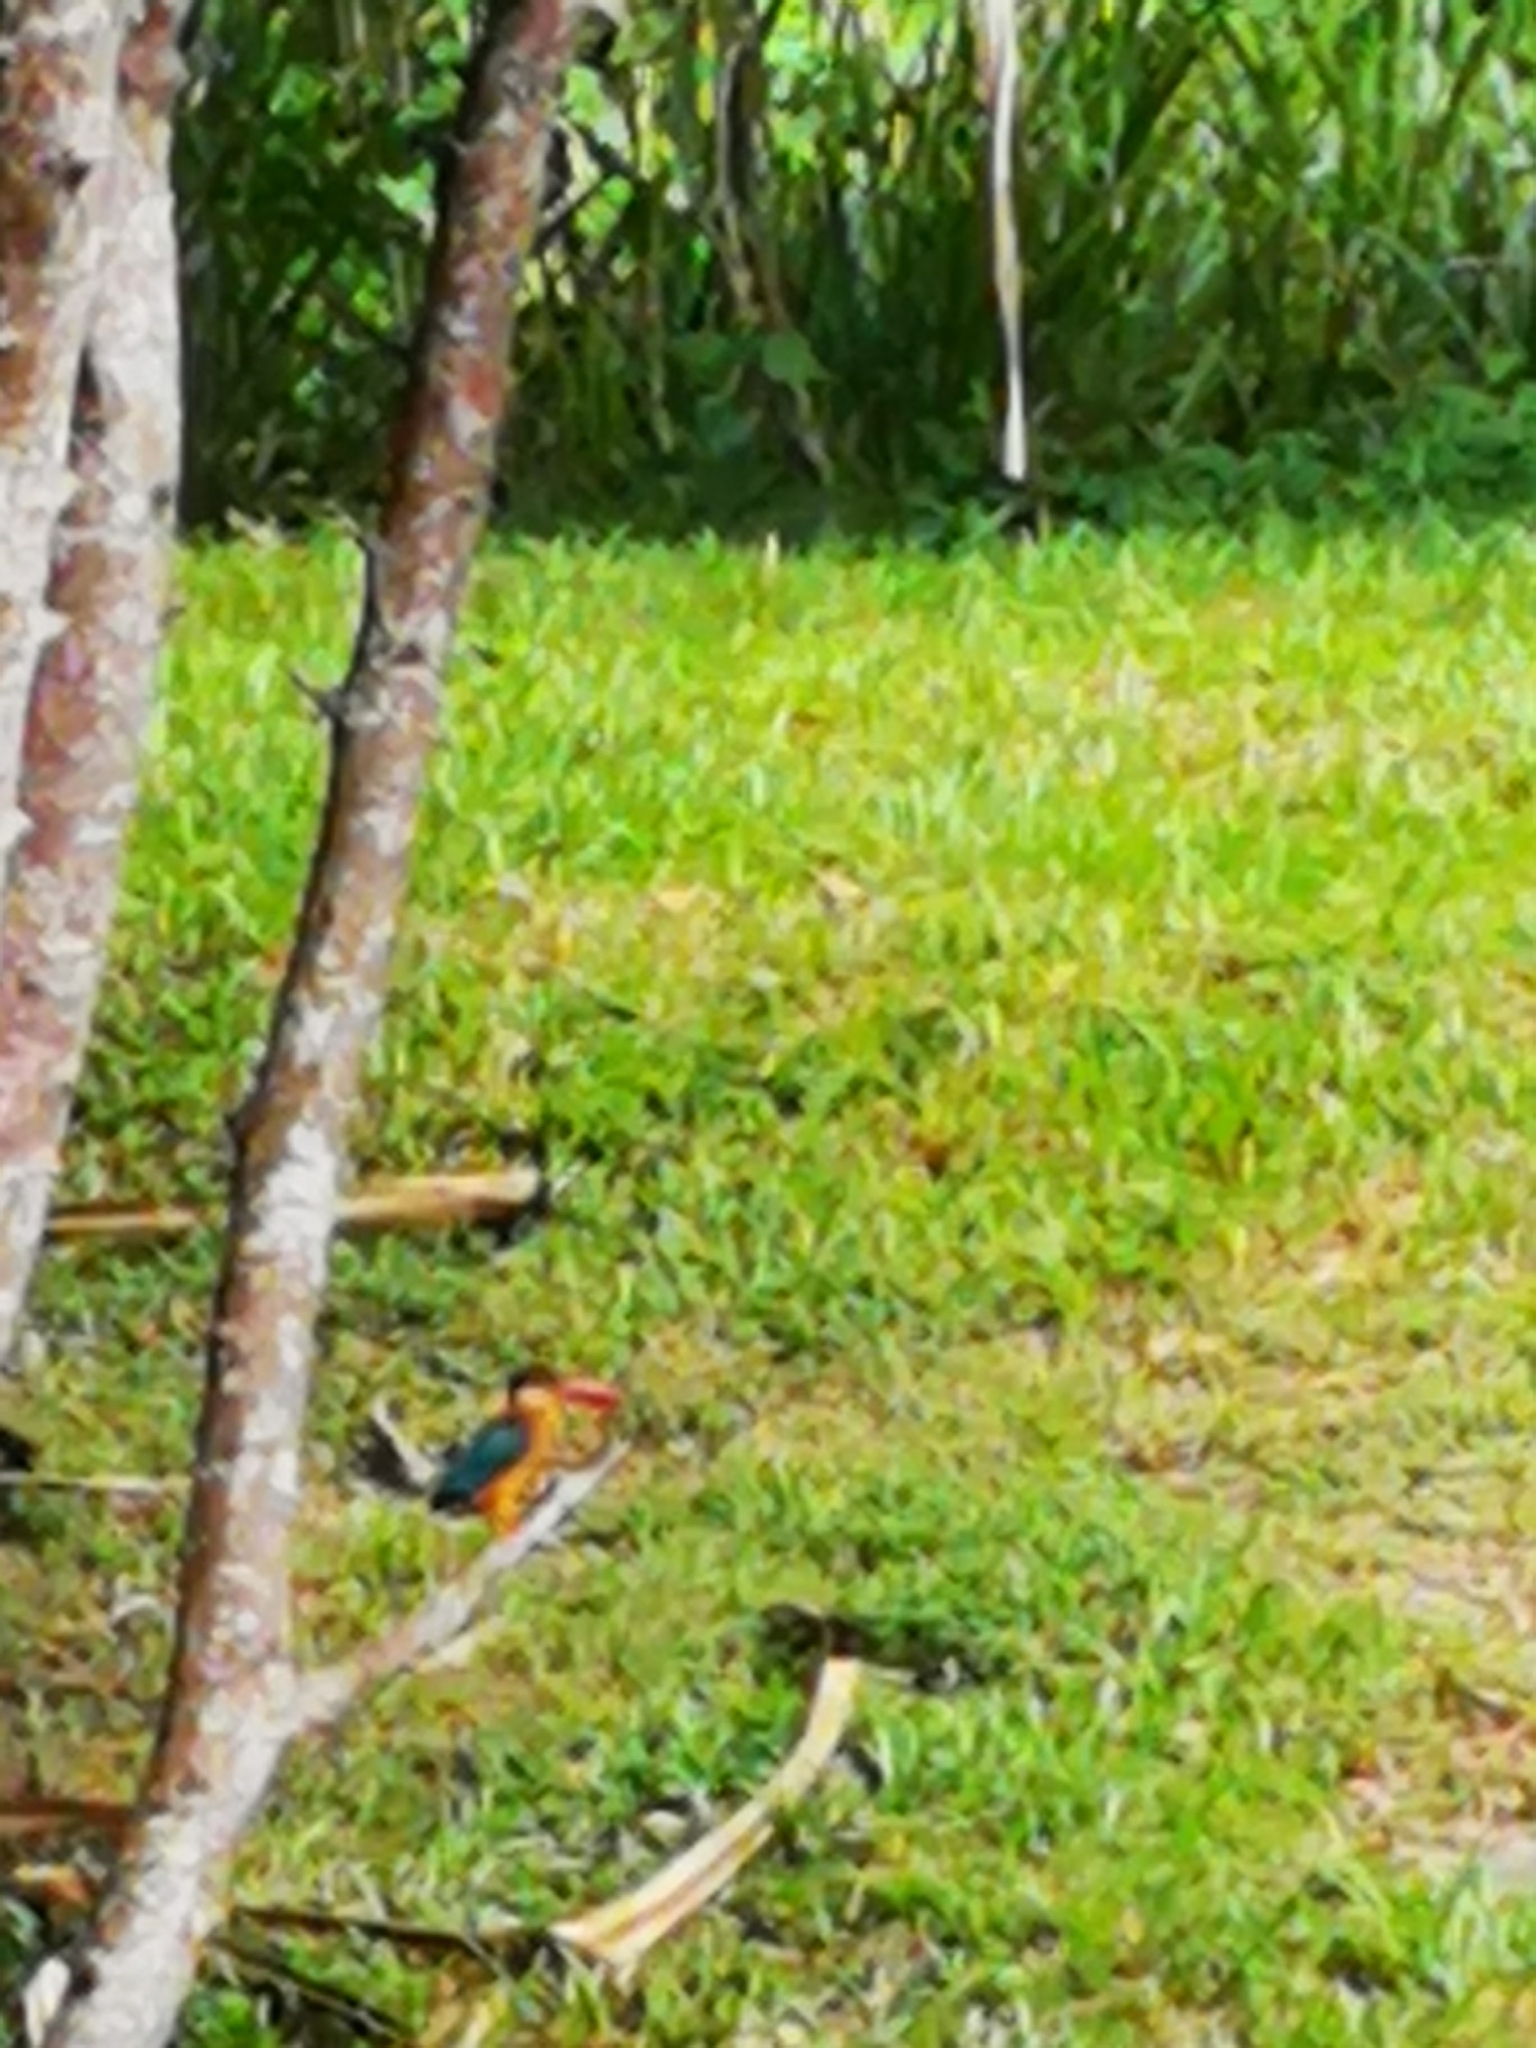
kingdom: Animalia
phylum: Chordata
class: Aves
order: Coraciiformes
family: Alcedinidae
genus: Pelargopsis
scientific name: Pelargopsis capensis
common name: Stork-billed kingfisher
